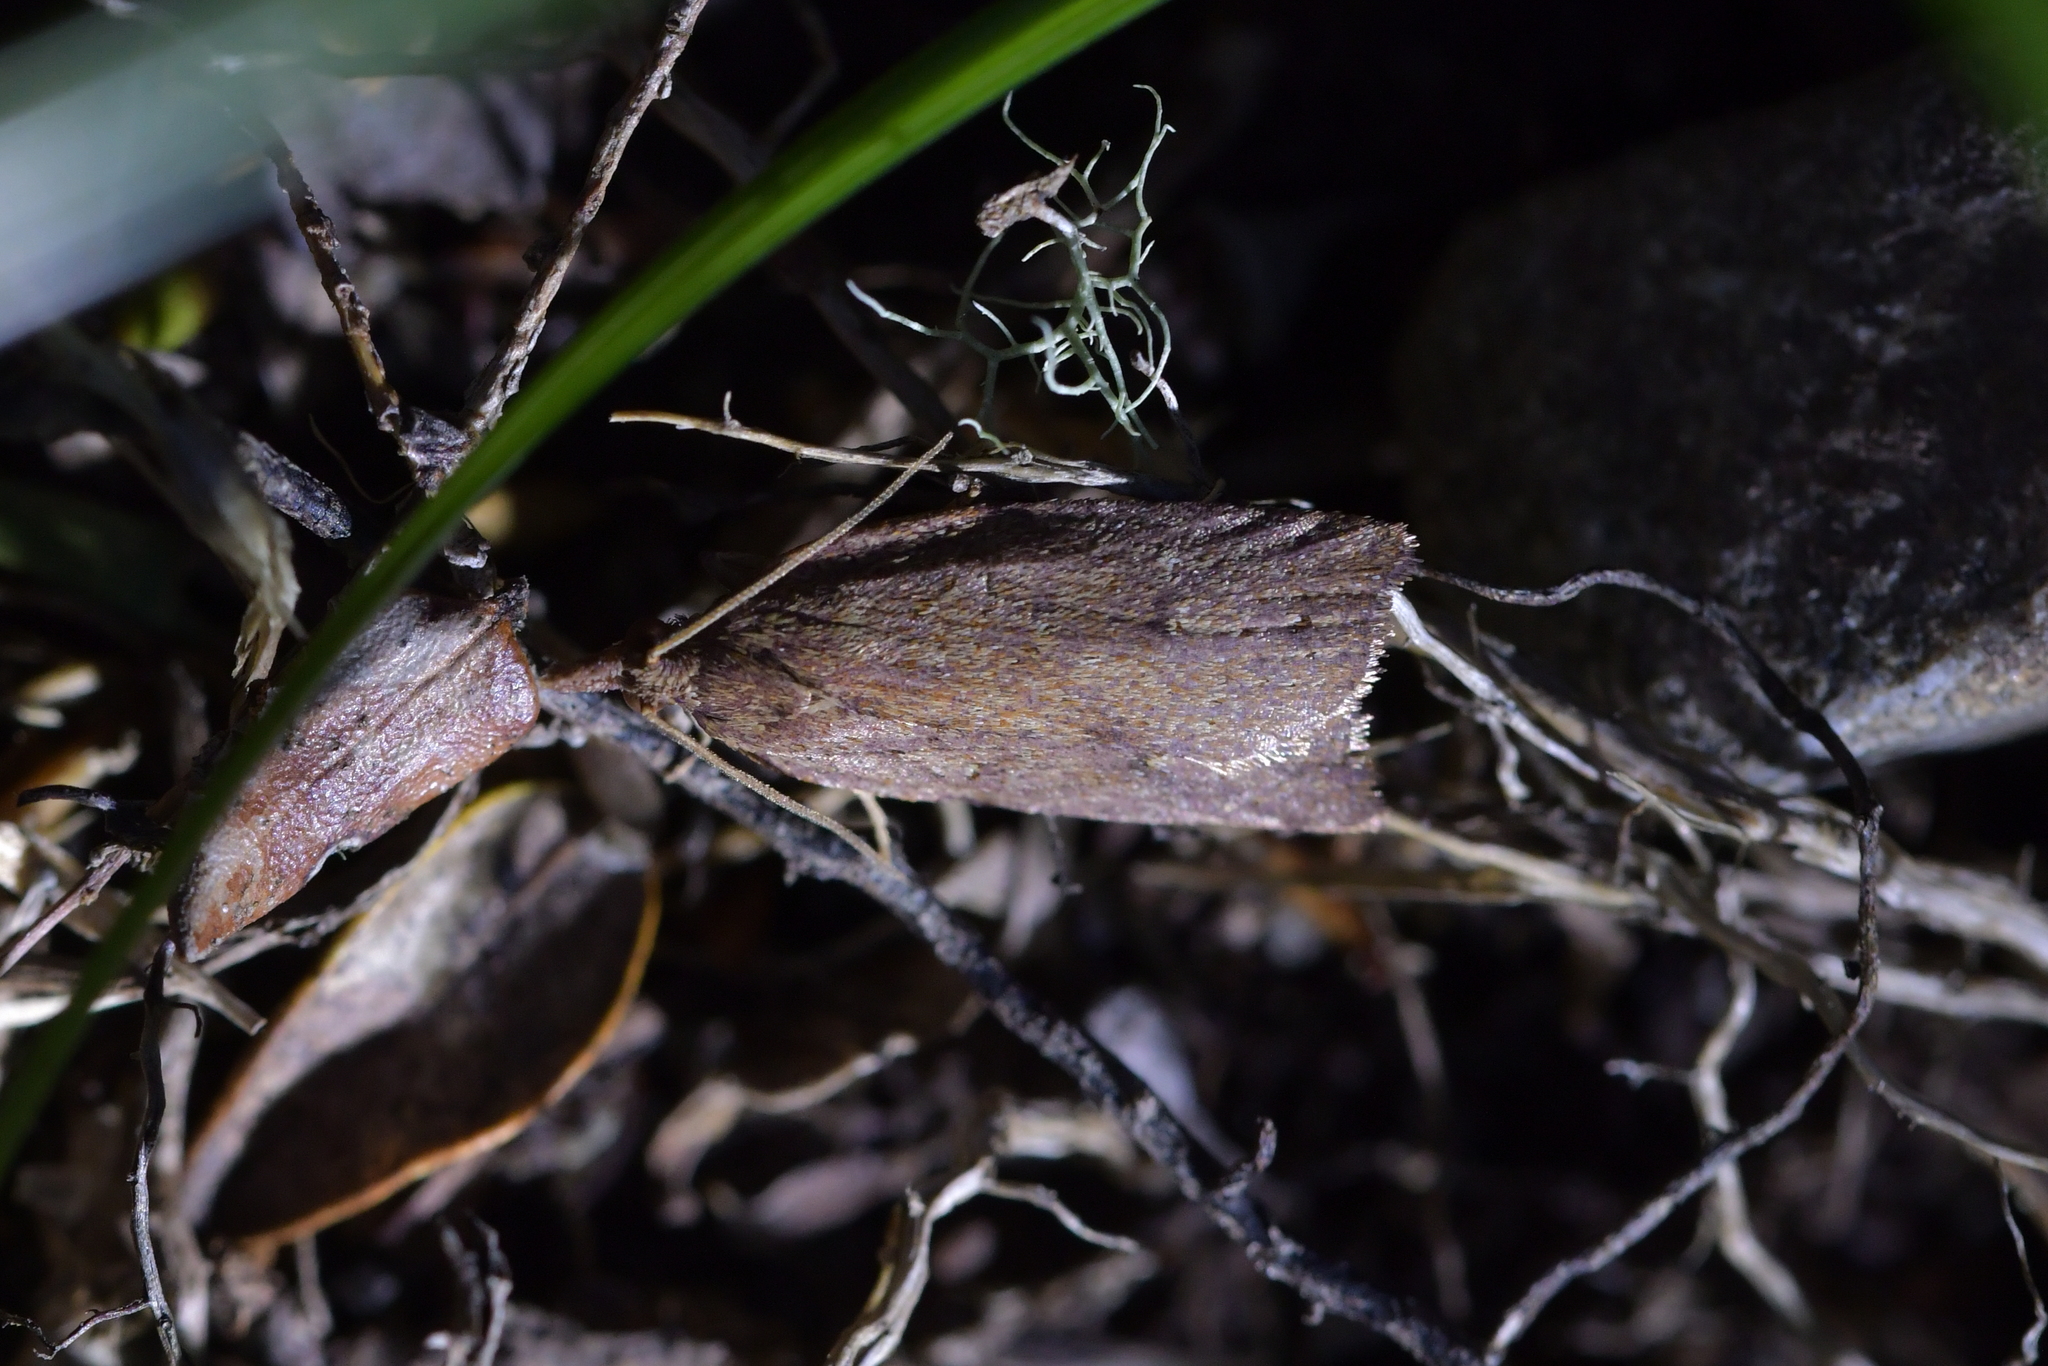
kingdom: Animalia
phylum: Arthropoda
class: Insecta
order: Lepidoptera
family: Tortricidae
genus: Planotortrix
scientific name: Planotortrix notophaea
